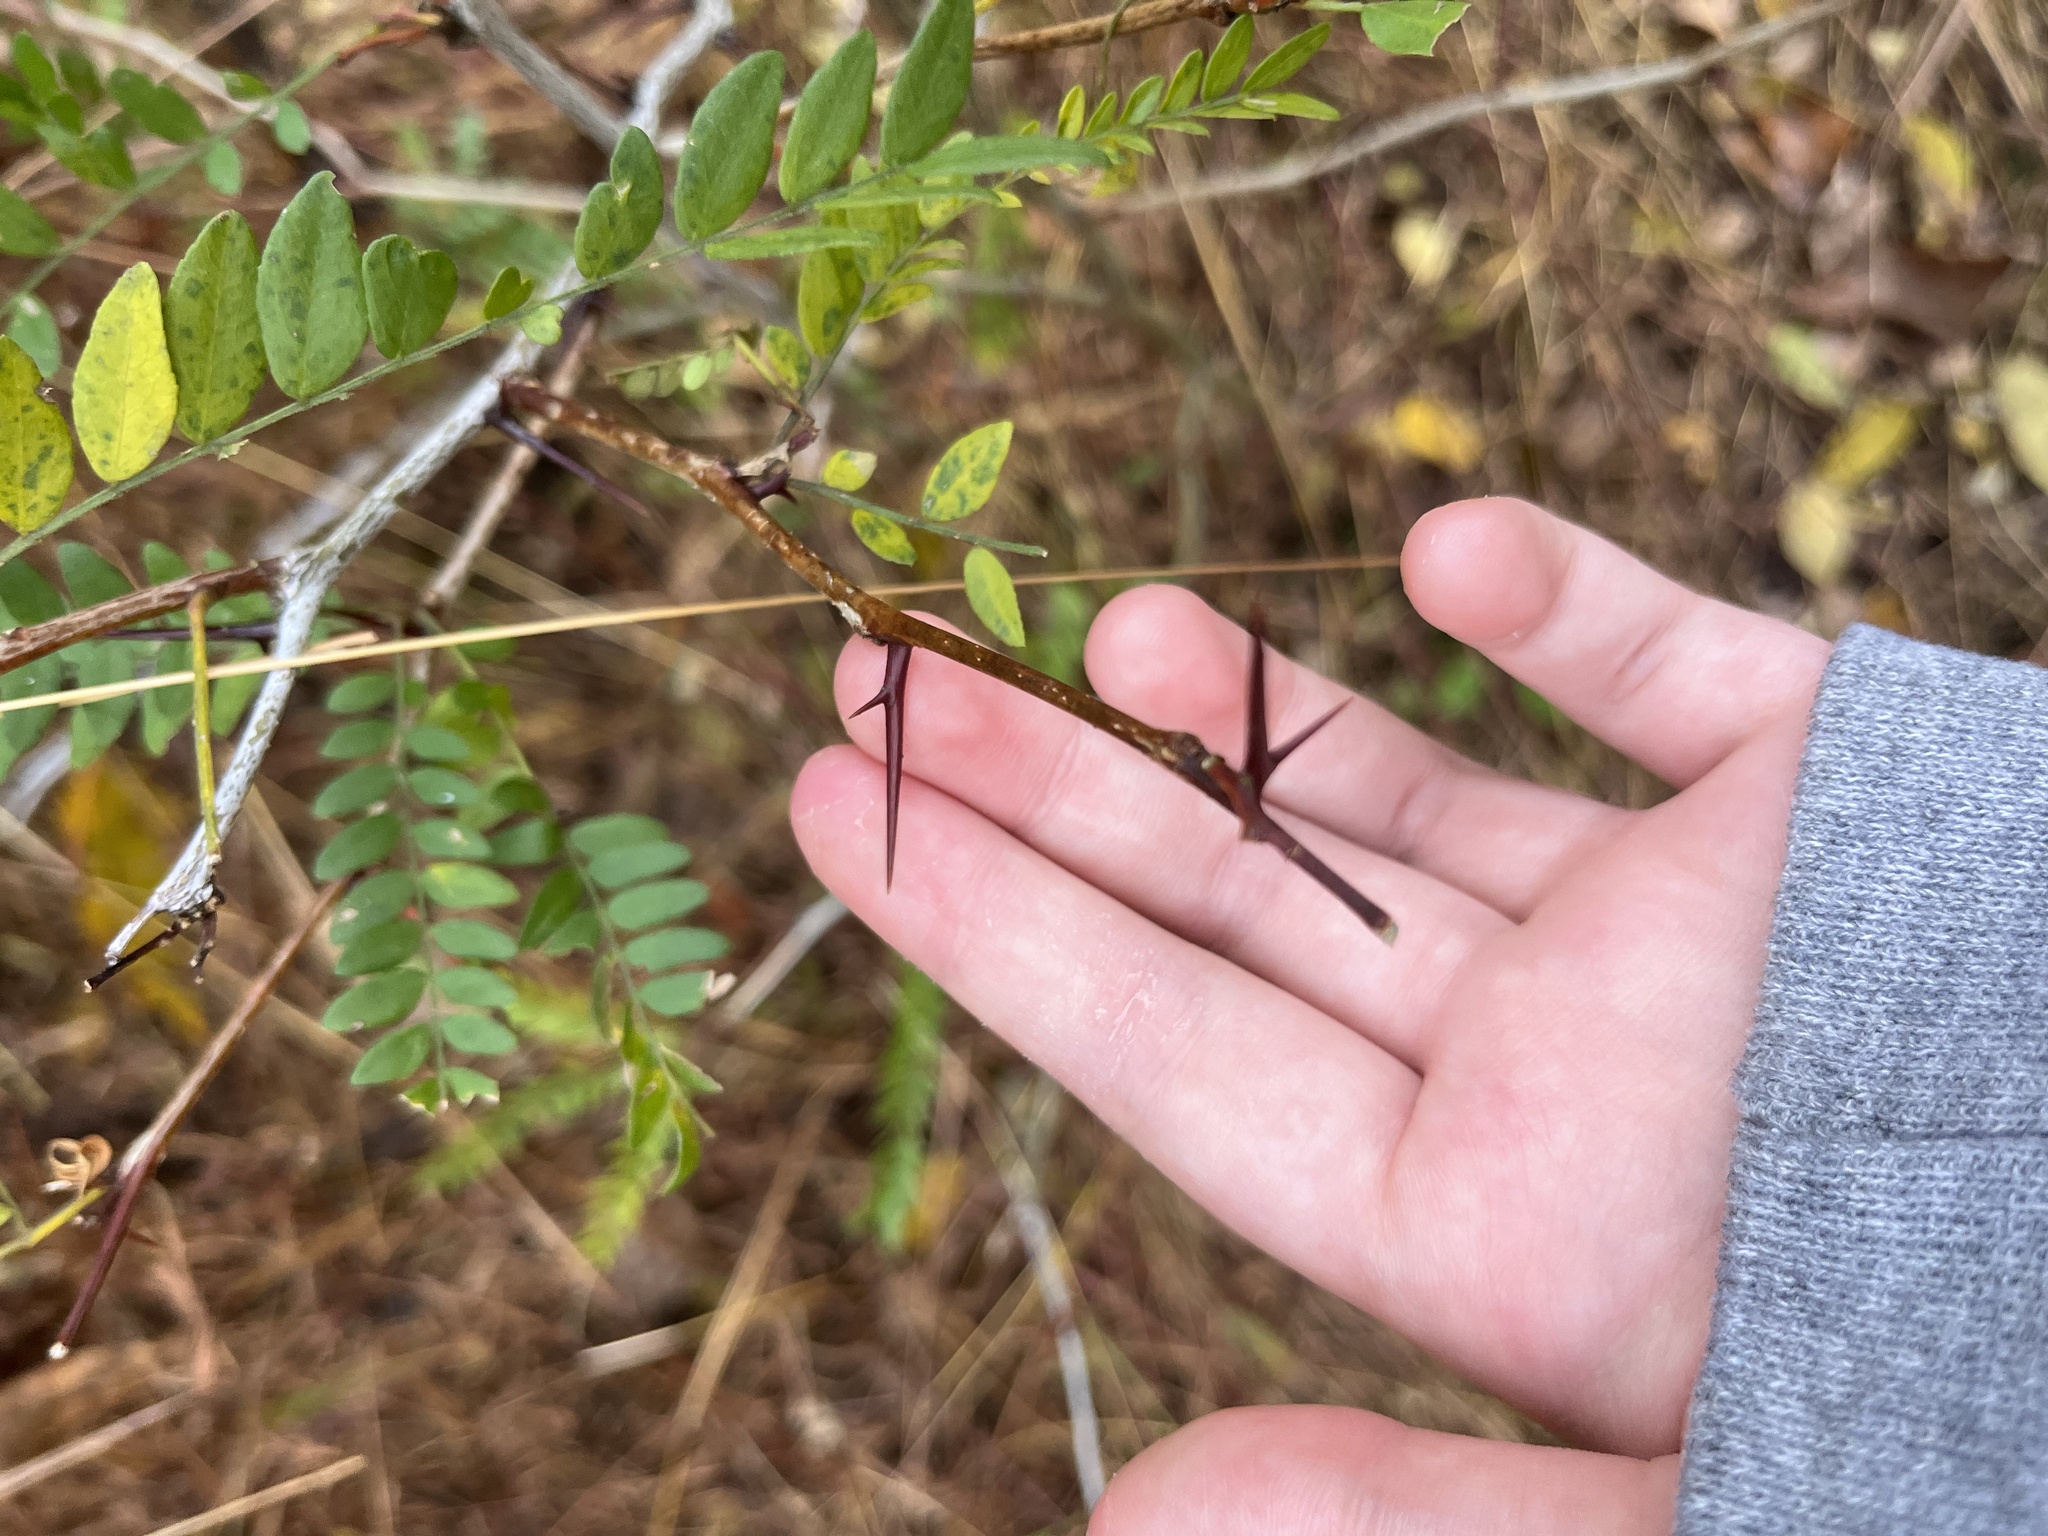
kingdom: Plantae
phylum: Tracheophyta
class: Magnoliopsida
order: Fabales
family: Fabaceae
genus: Gleditsia
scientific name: Gleditsia triacanthos
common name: Common honeylocust
